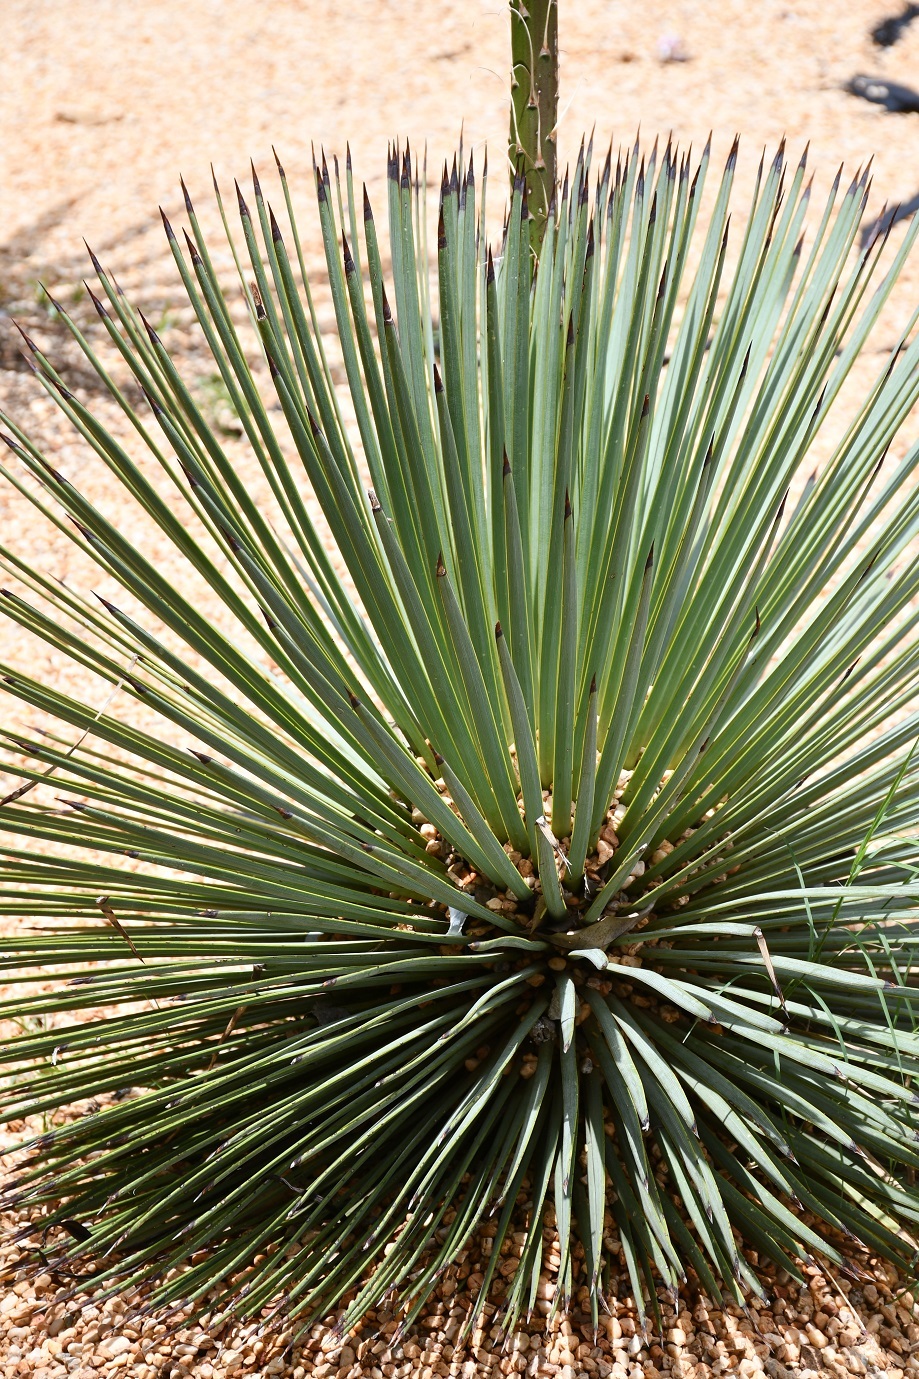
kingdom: Plantae
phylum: Tracheophyta
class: Liliopsida
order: Asparagales
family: Asparagaceae
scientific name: Asparagaceae
